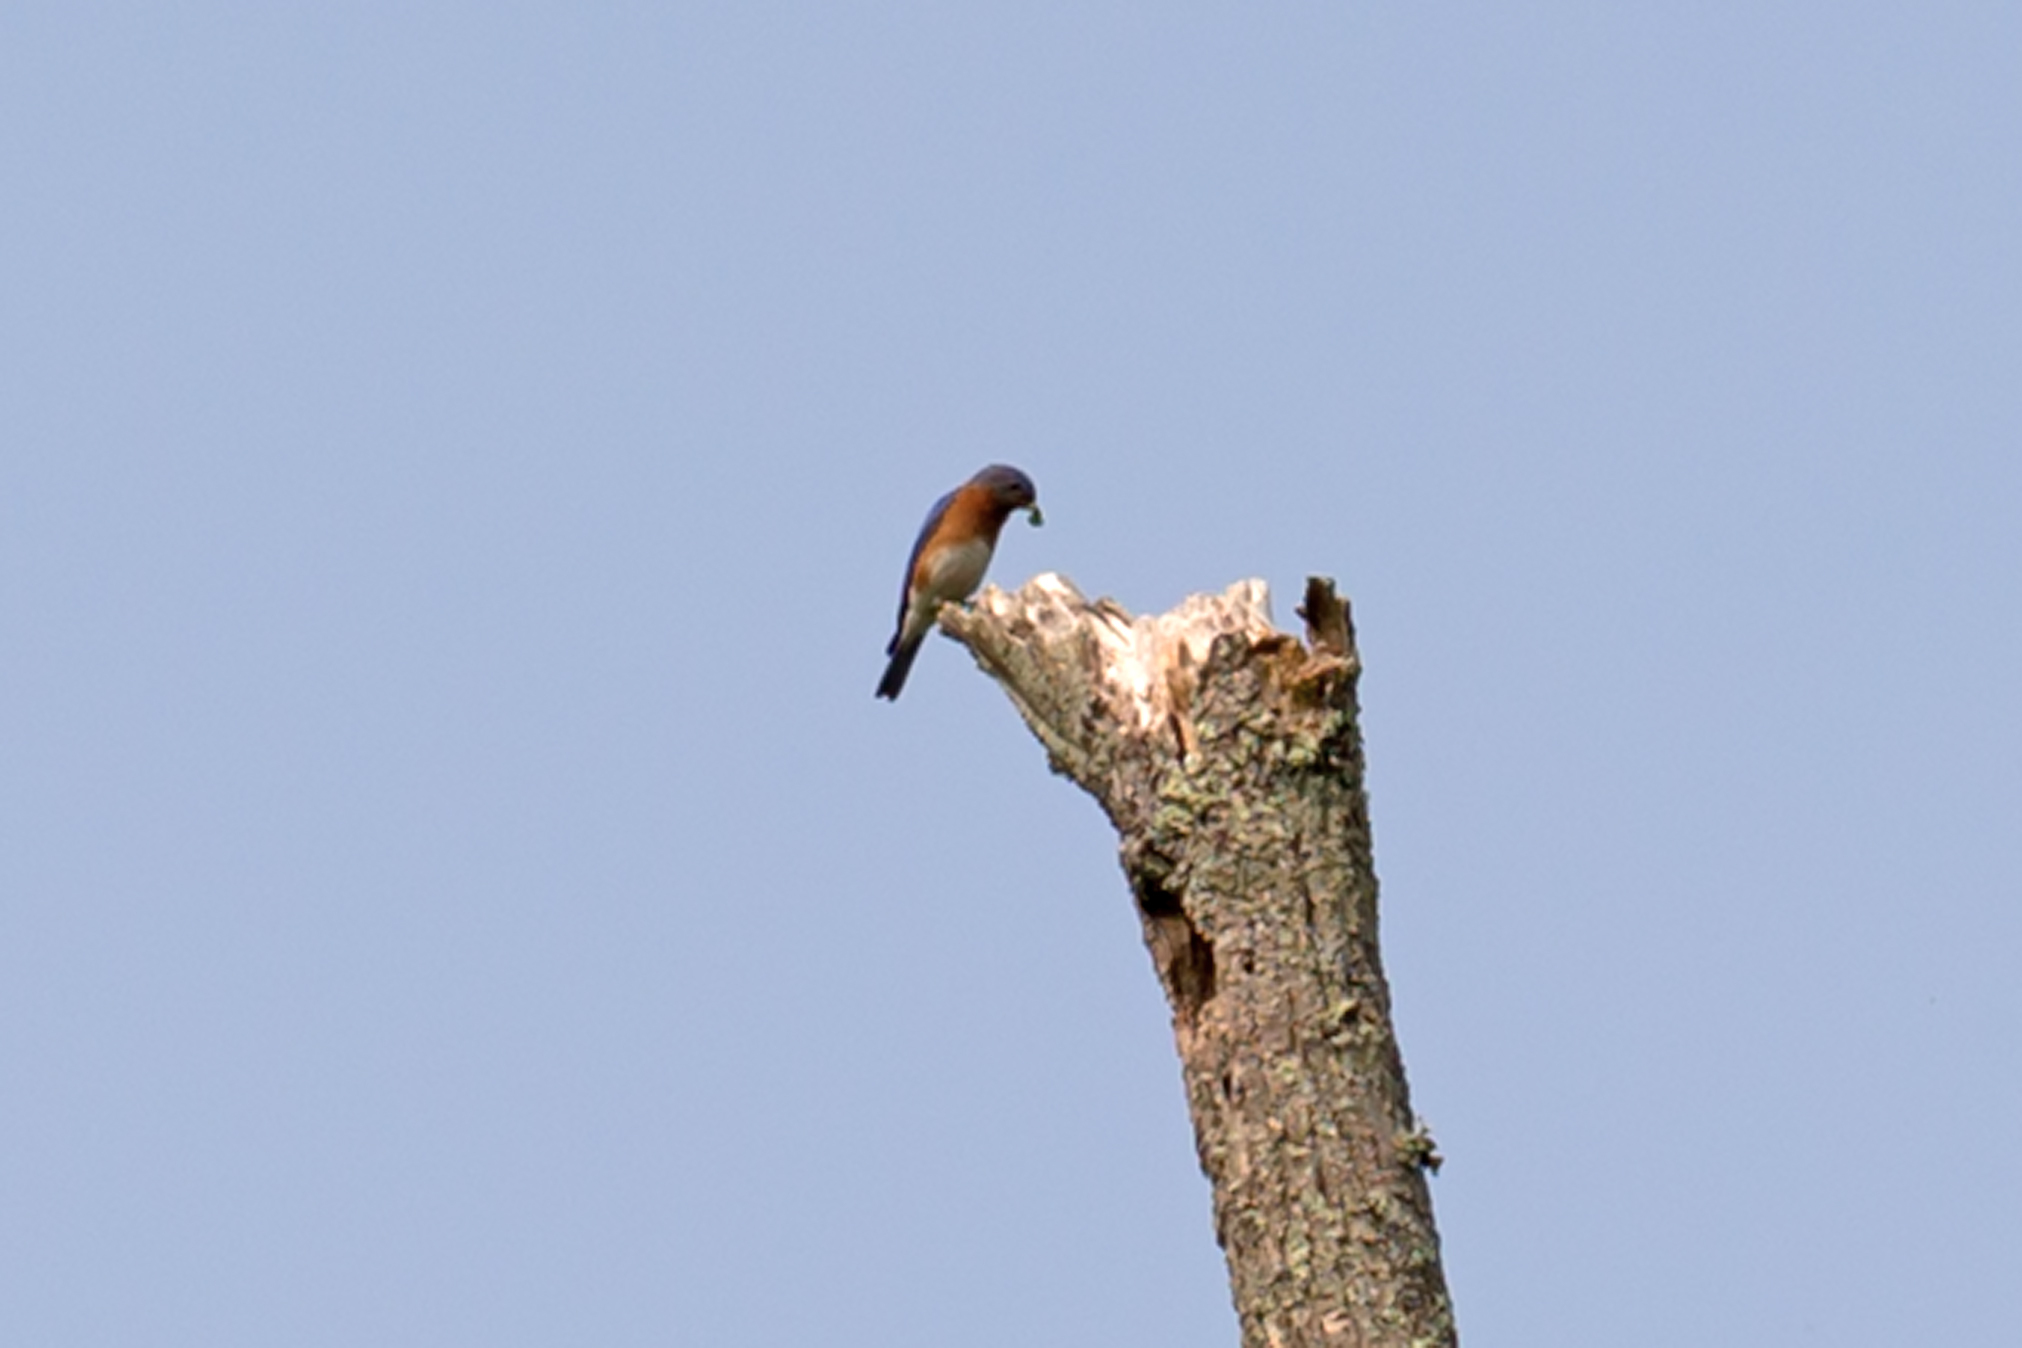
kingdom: Animalia
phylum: Chordata
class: Aves
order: Passeriformes
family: Turdidae
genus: Sialia
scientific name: Sialia sialis
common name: Eastern bluebird
